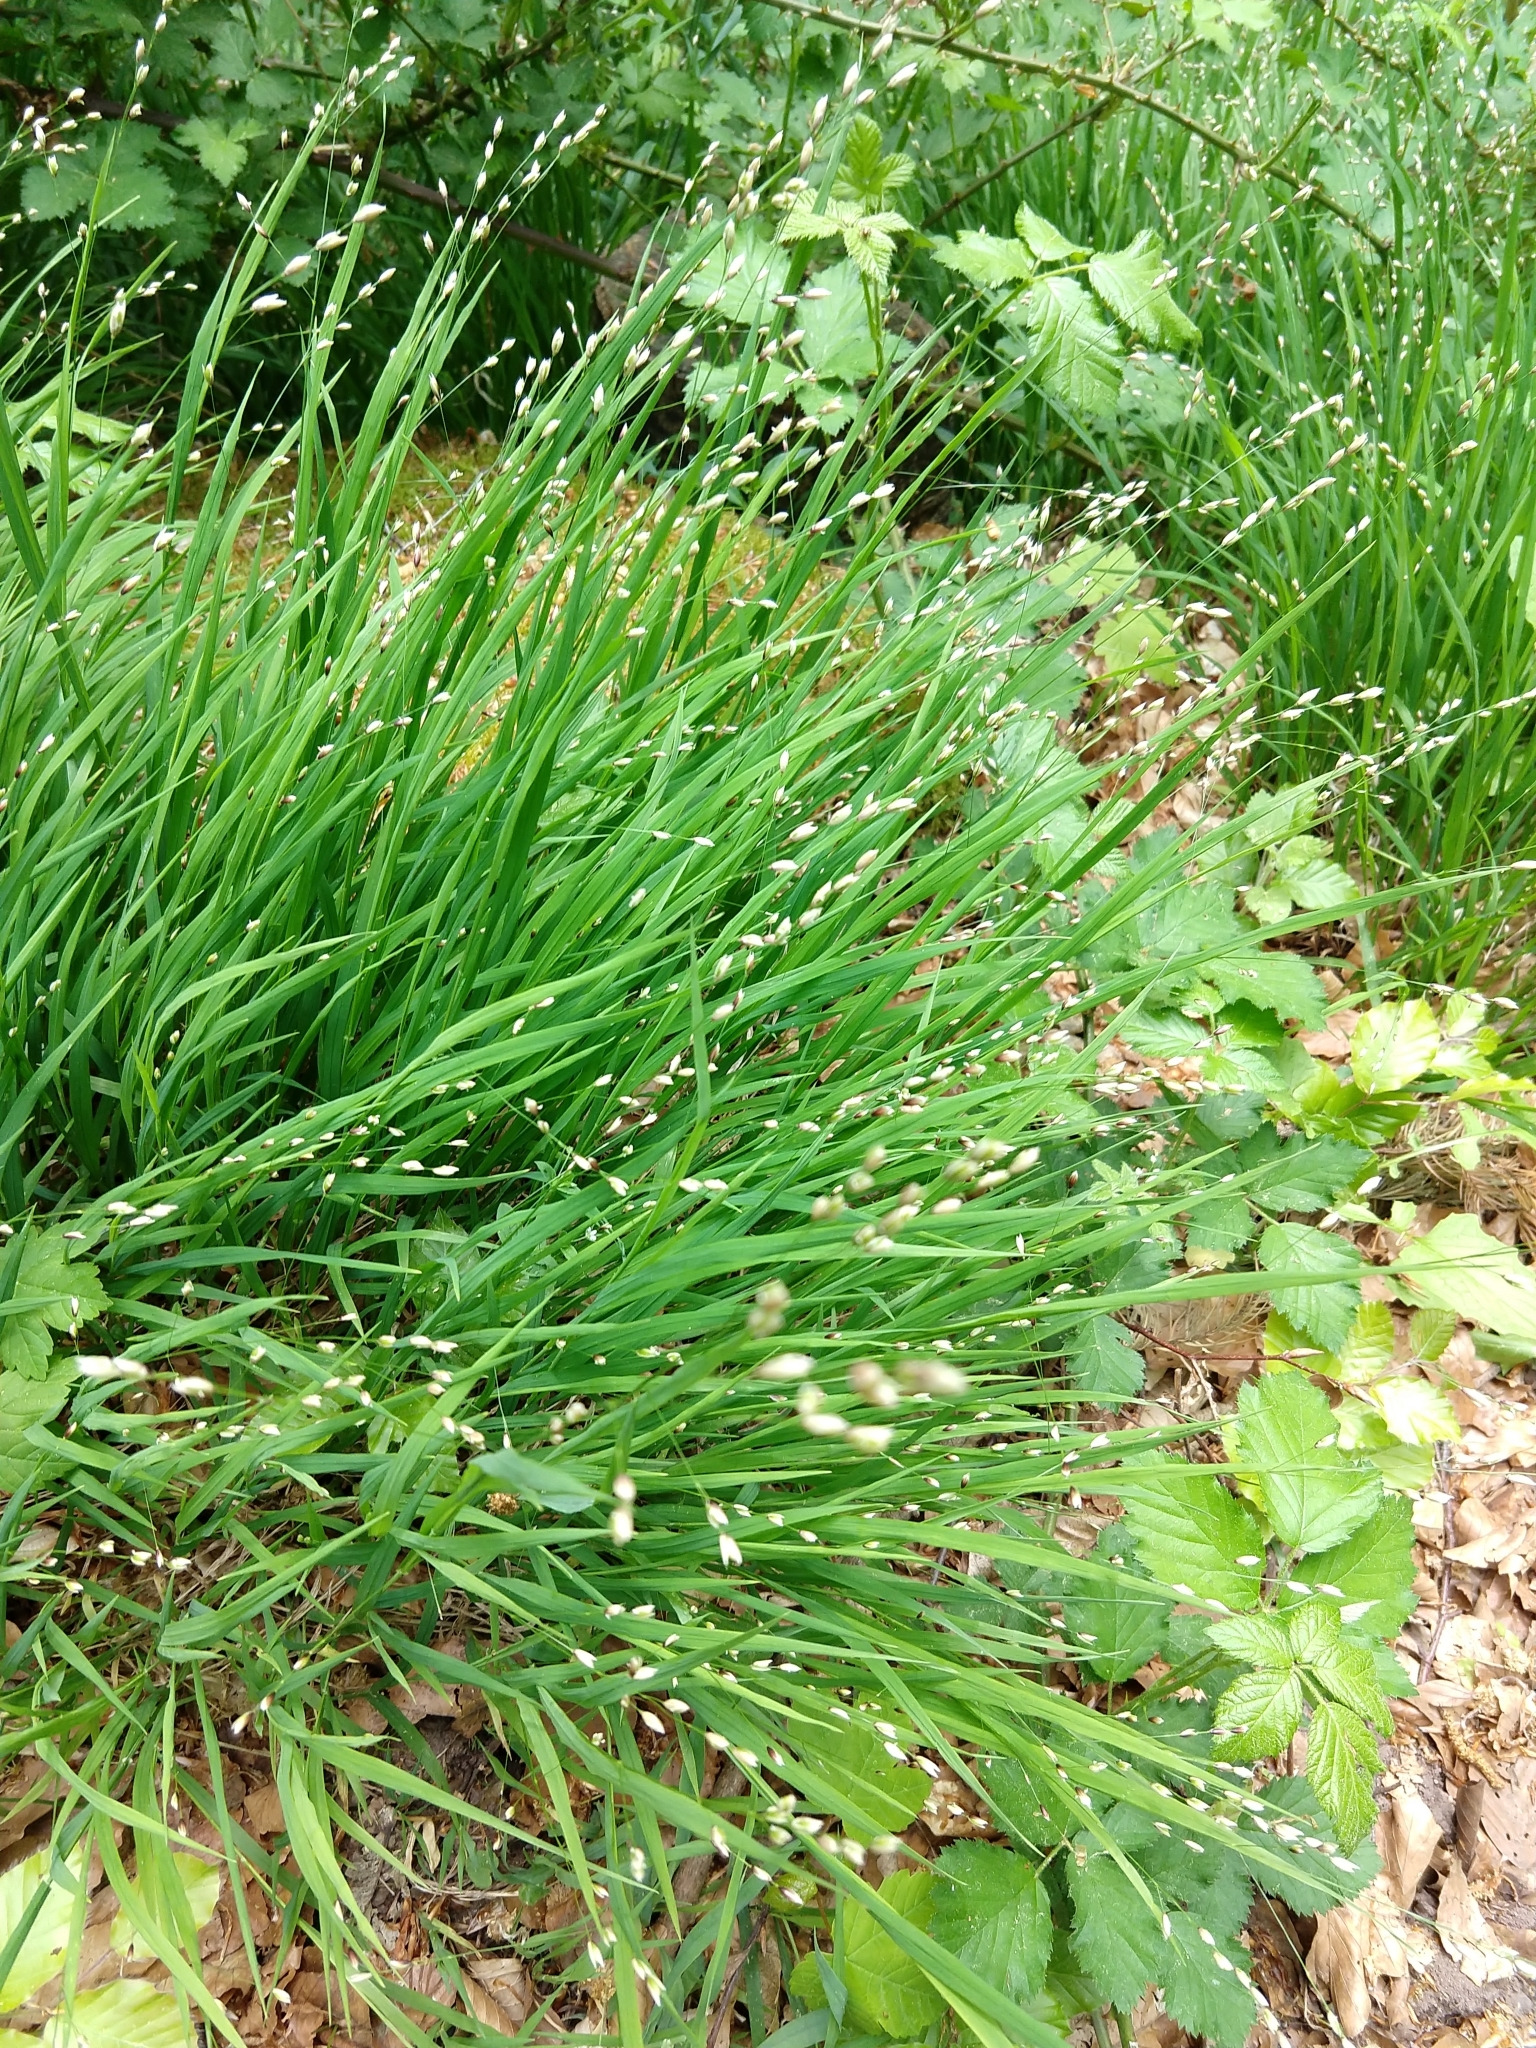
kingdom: Plantae
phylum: Tracheophyta
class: Liliopsida
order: Poales
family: Poaceae
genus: Melica
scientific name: Melica uniflora
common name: Wood melick
